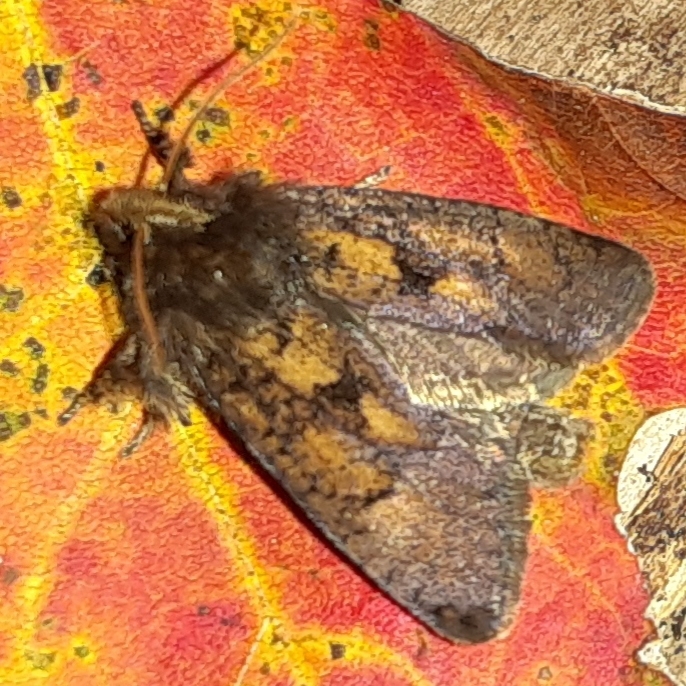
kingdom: Animalia
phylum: Arthropoda
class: Insecta
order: Lepidoptera
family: Tineidae
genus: Acrolophus
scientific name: Acrolophus mora
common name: Dark acrolophus
